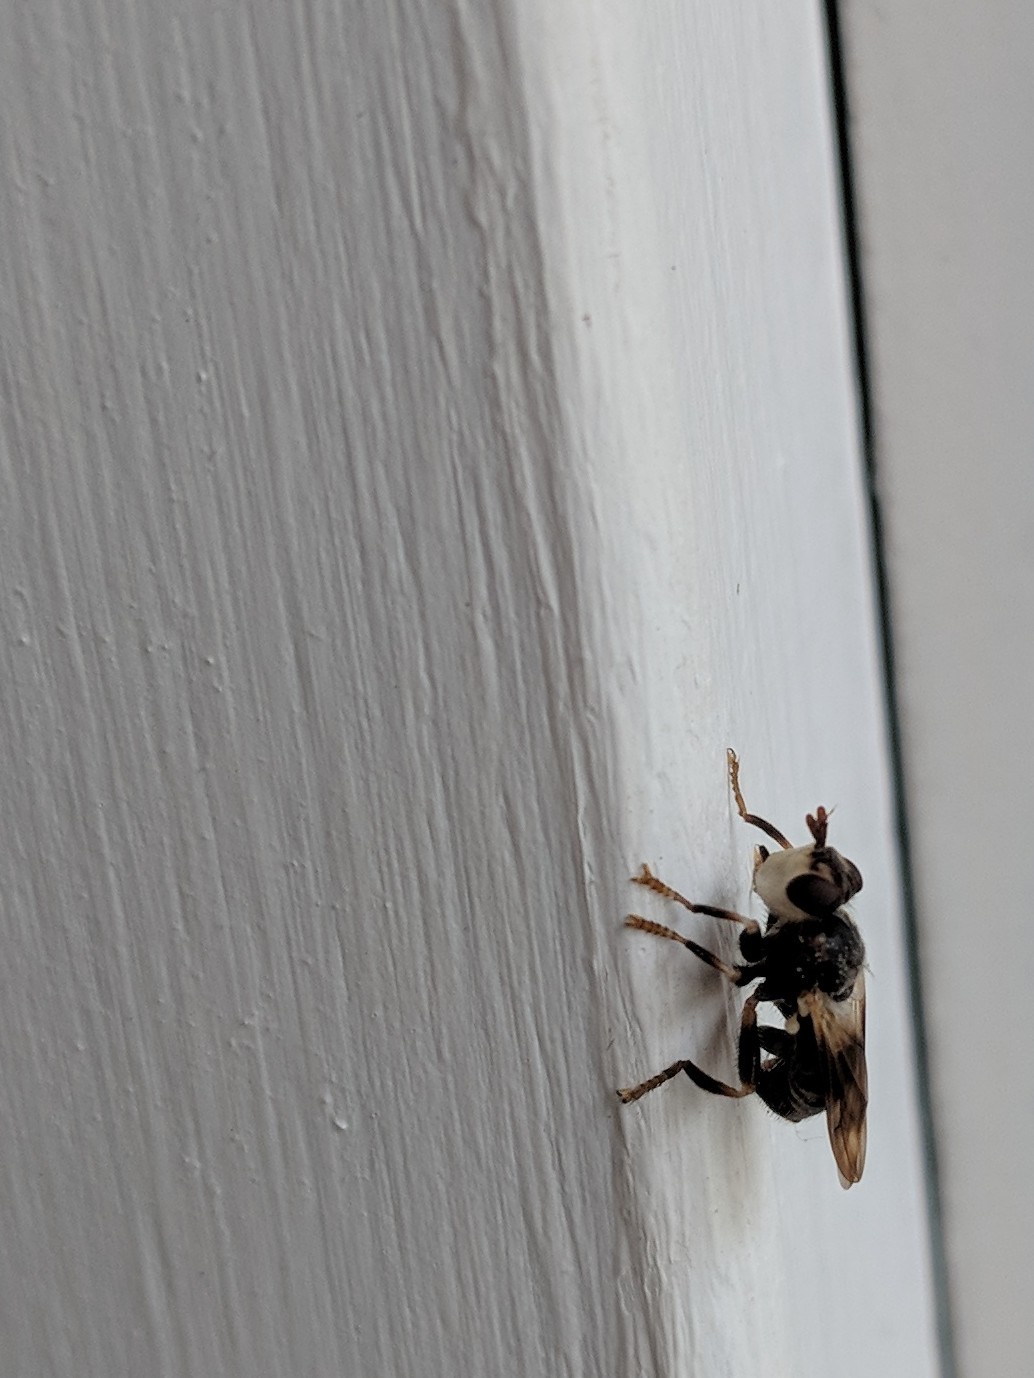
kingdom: Animalia
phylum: Arthropoda
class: Insecta
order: Diptera
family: Conopidae
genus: Myopa
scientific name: Myopa vesiculosa
